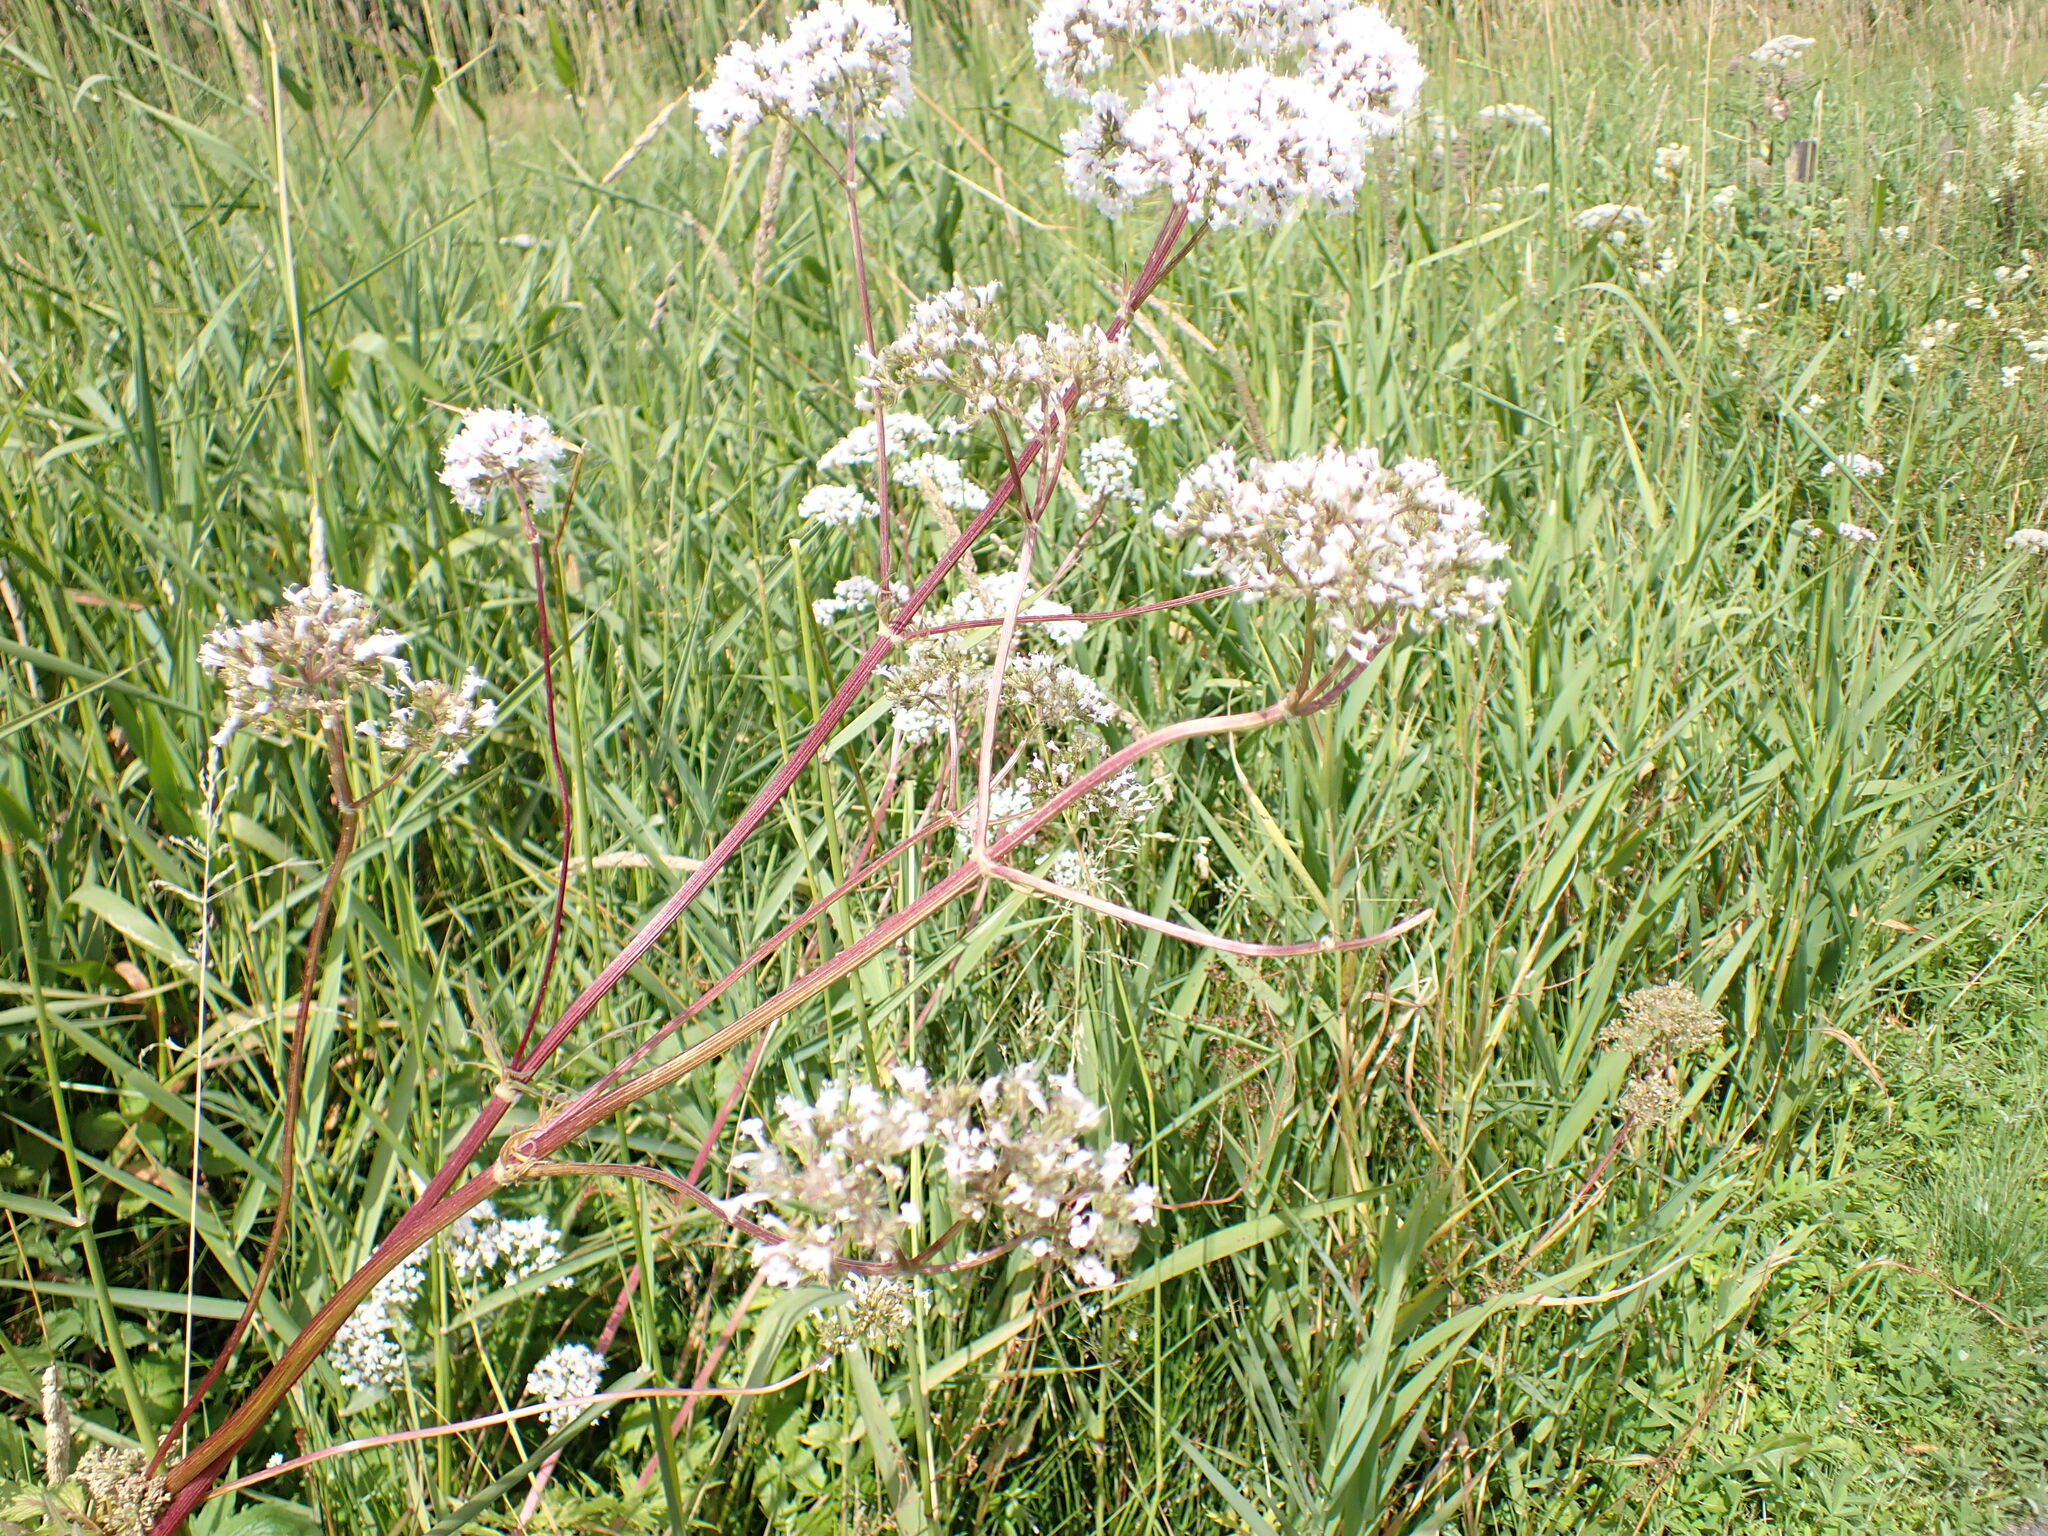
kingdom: Plantae
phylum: Tracheophyta
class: Magnoliopsida
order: Dipsacales
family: Caprifoliaceae
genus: Valeriana
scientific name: Valeriana officinalis
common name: Common valerian
